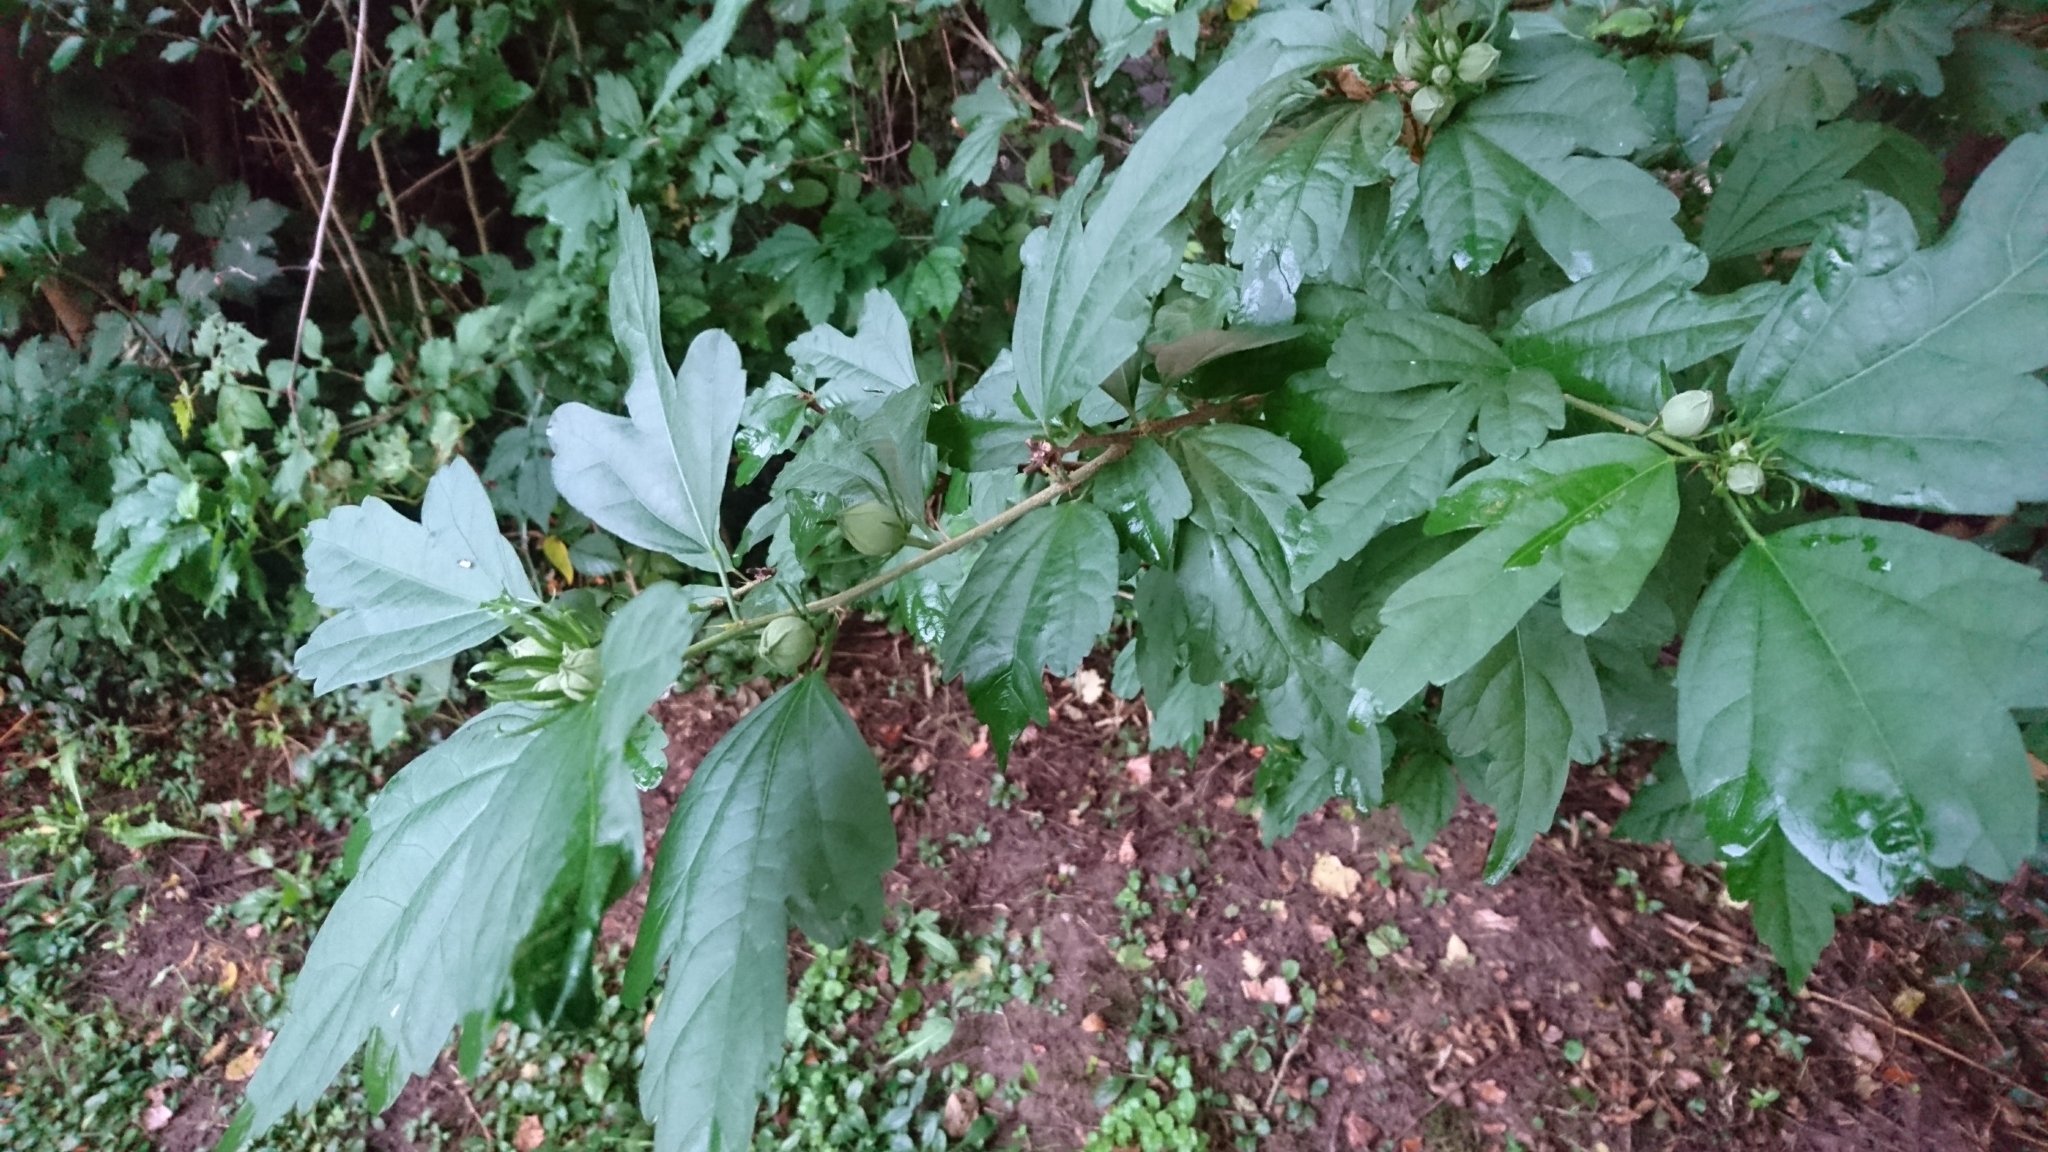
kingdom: Plantae
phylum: Tracheophyta
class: Magnoliopsida
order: Malvales
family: Malvaceae
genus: Hibiscus
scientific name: Hibiscus syriacus
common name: Syrian ketmia
